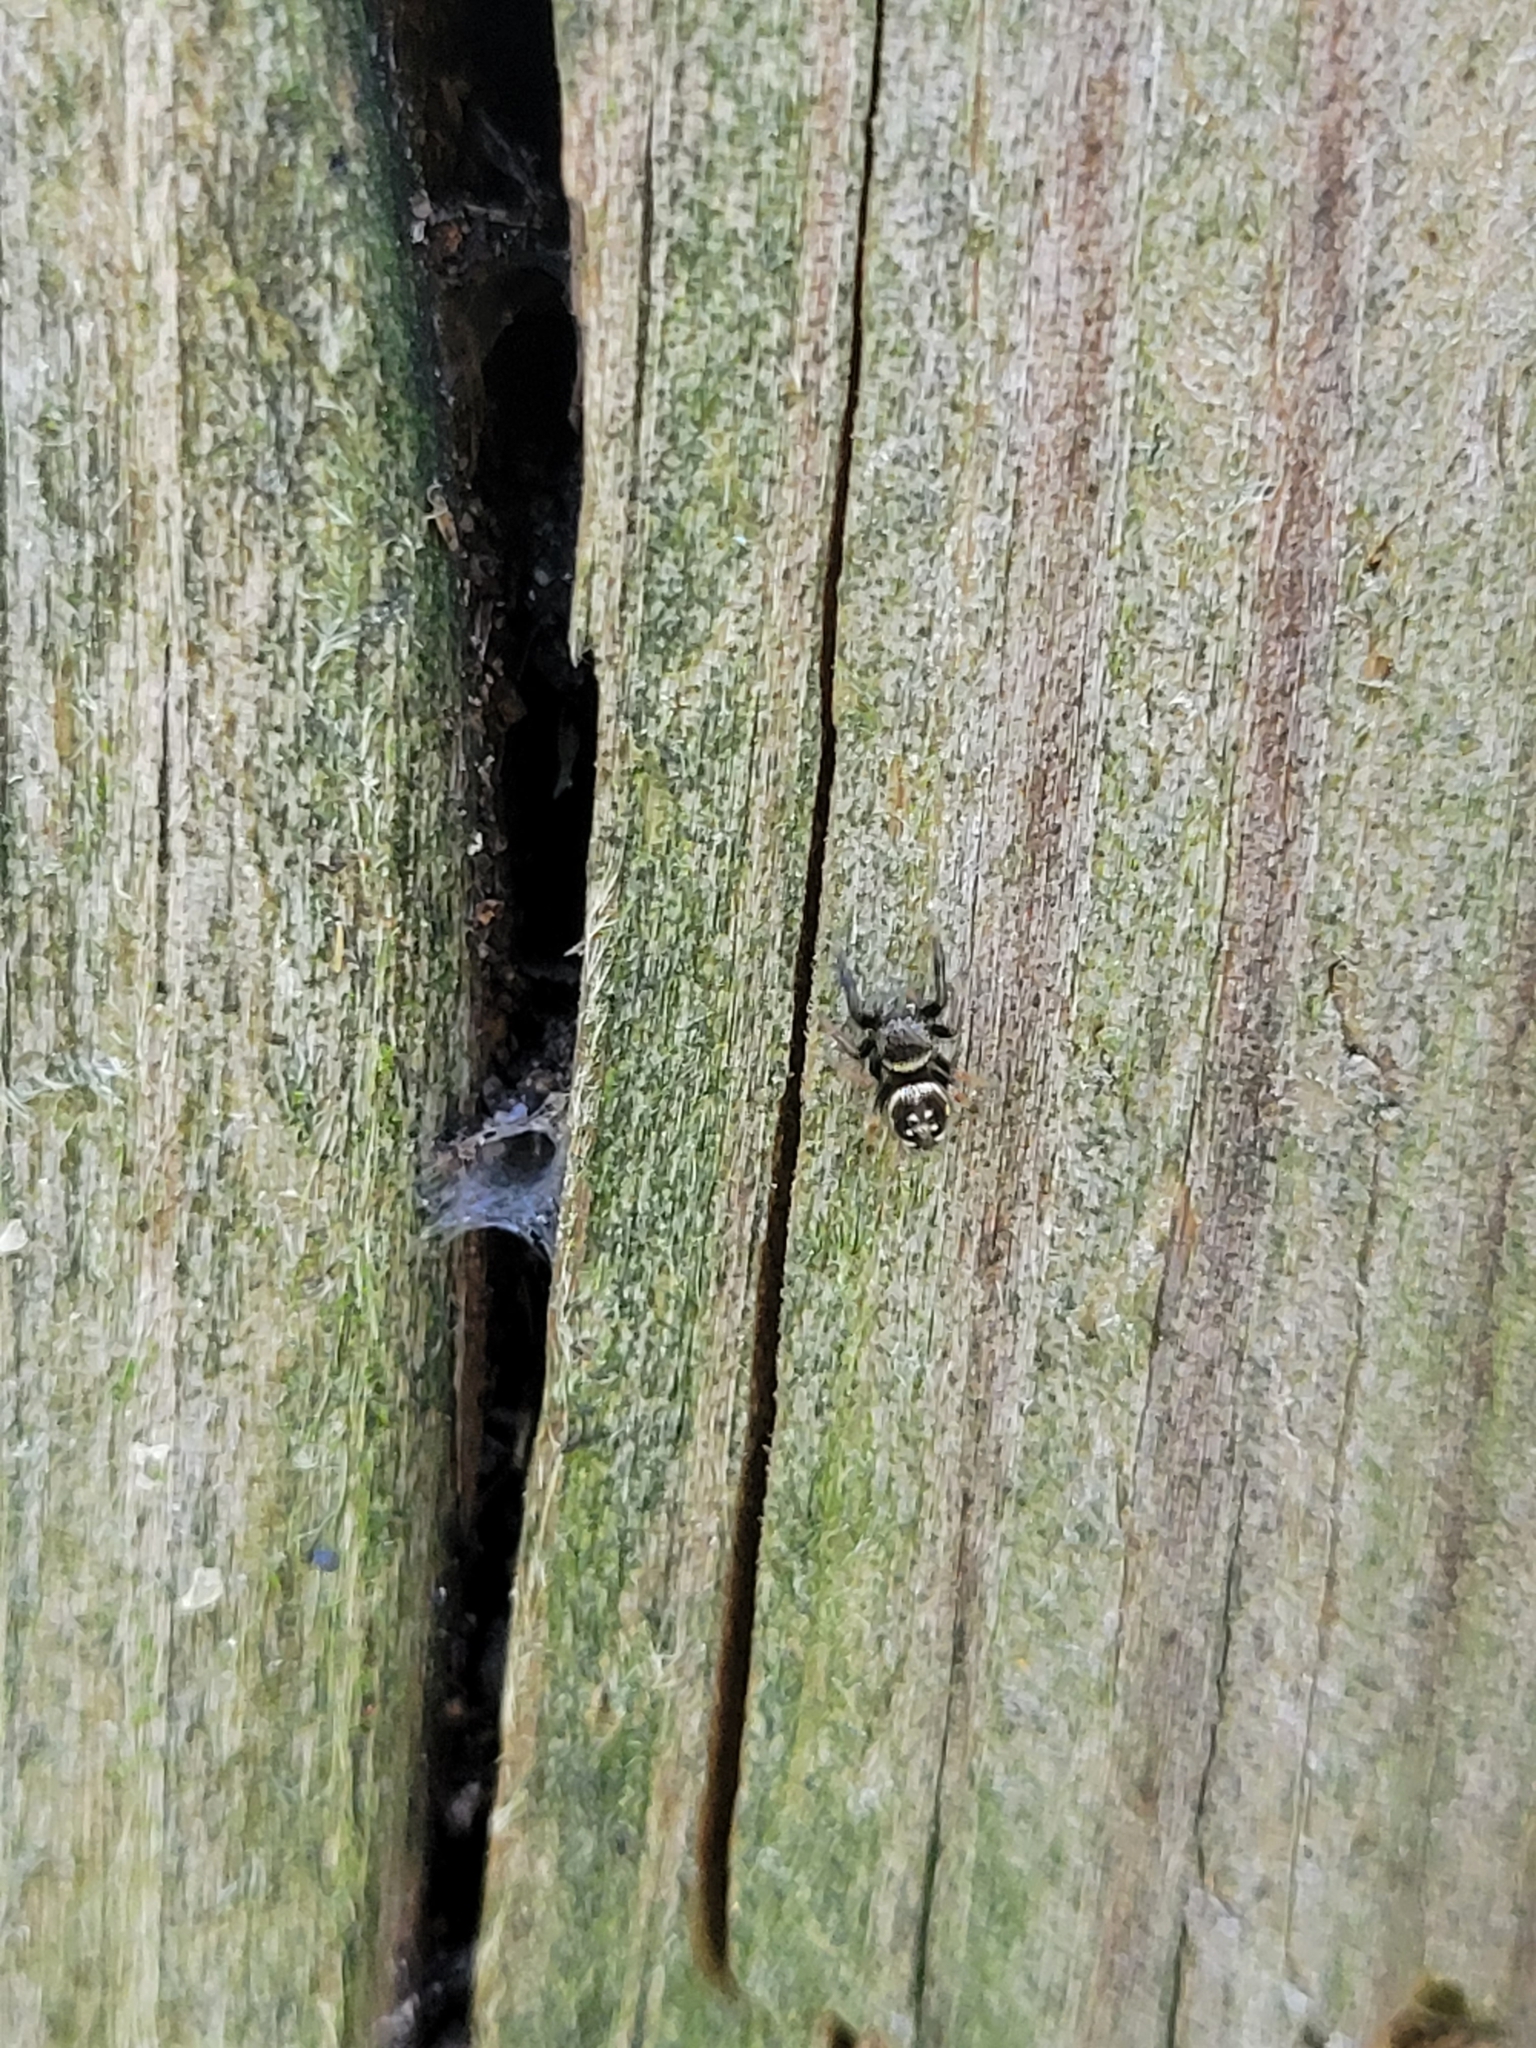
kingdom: Animalia
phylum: Arthropoda
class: Arachnida
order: Araneae
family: Salticidae
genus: Paraphidippus
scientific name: Paraphidippus aurantius
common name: Jumping spiders
